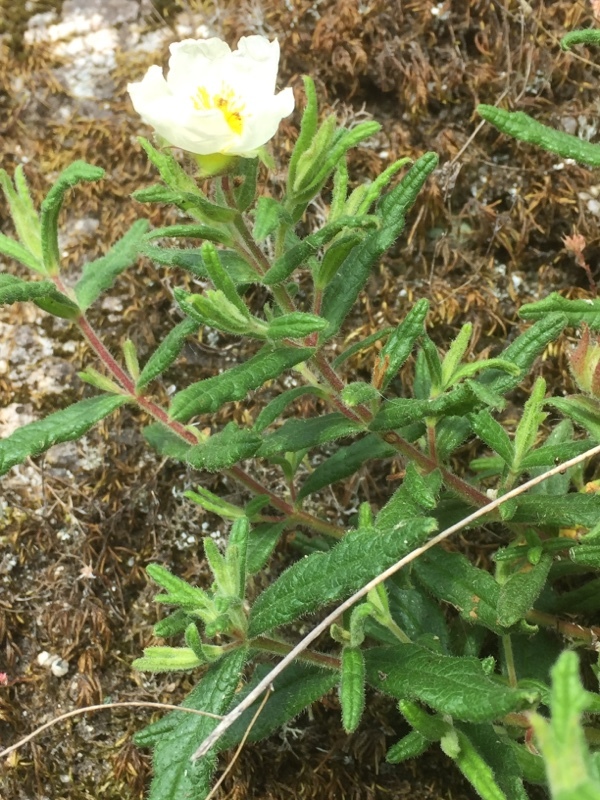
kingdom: Plantae
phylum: Tracheophyta
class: Magnoliopsida
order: Malvales
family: Cistaceae
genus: Cistus
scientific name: Cistus inflatus
